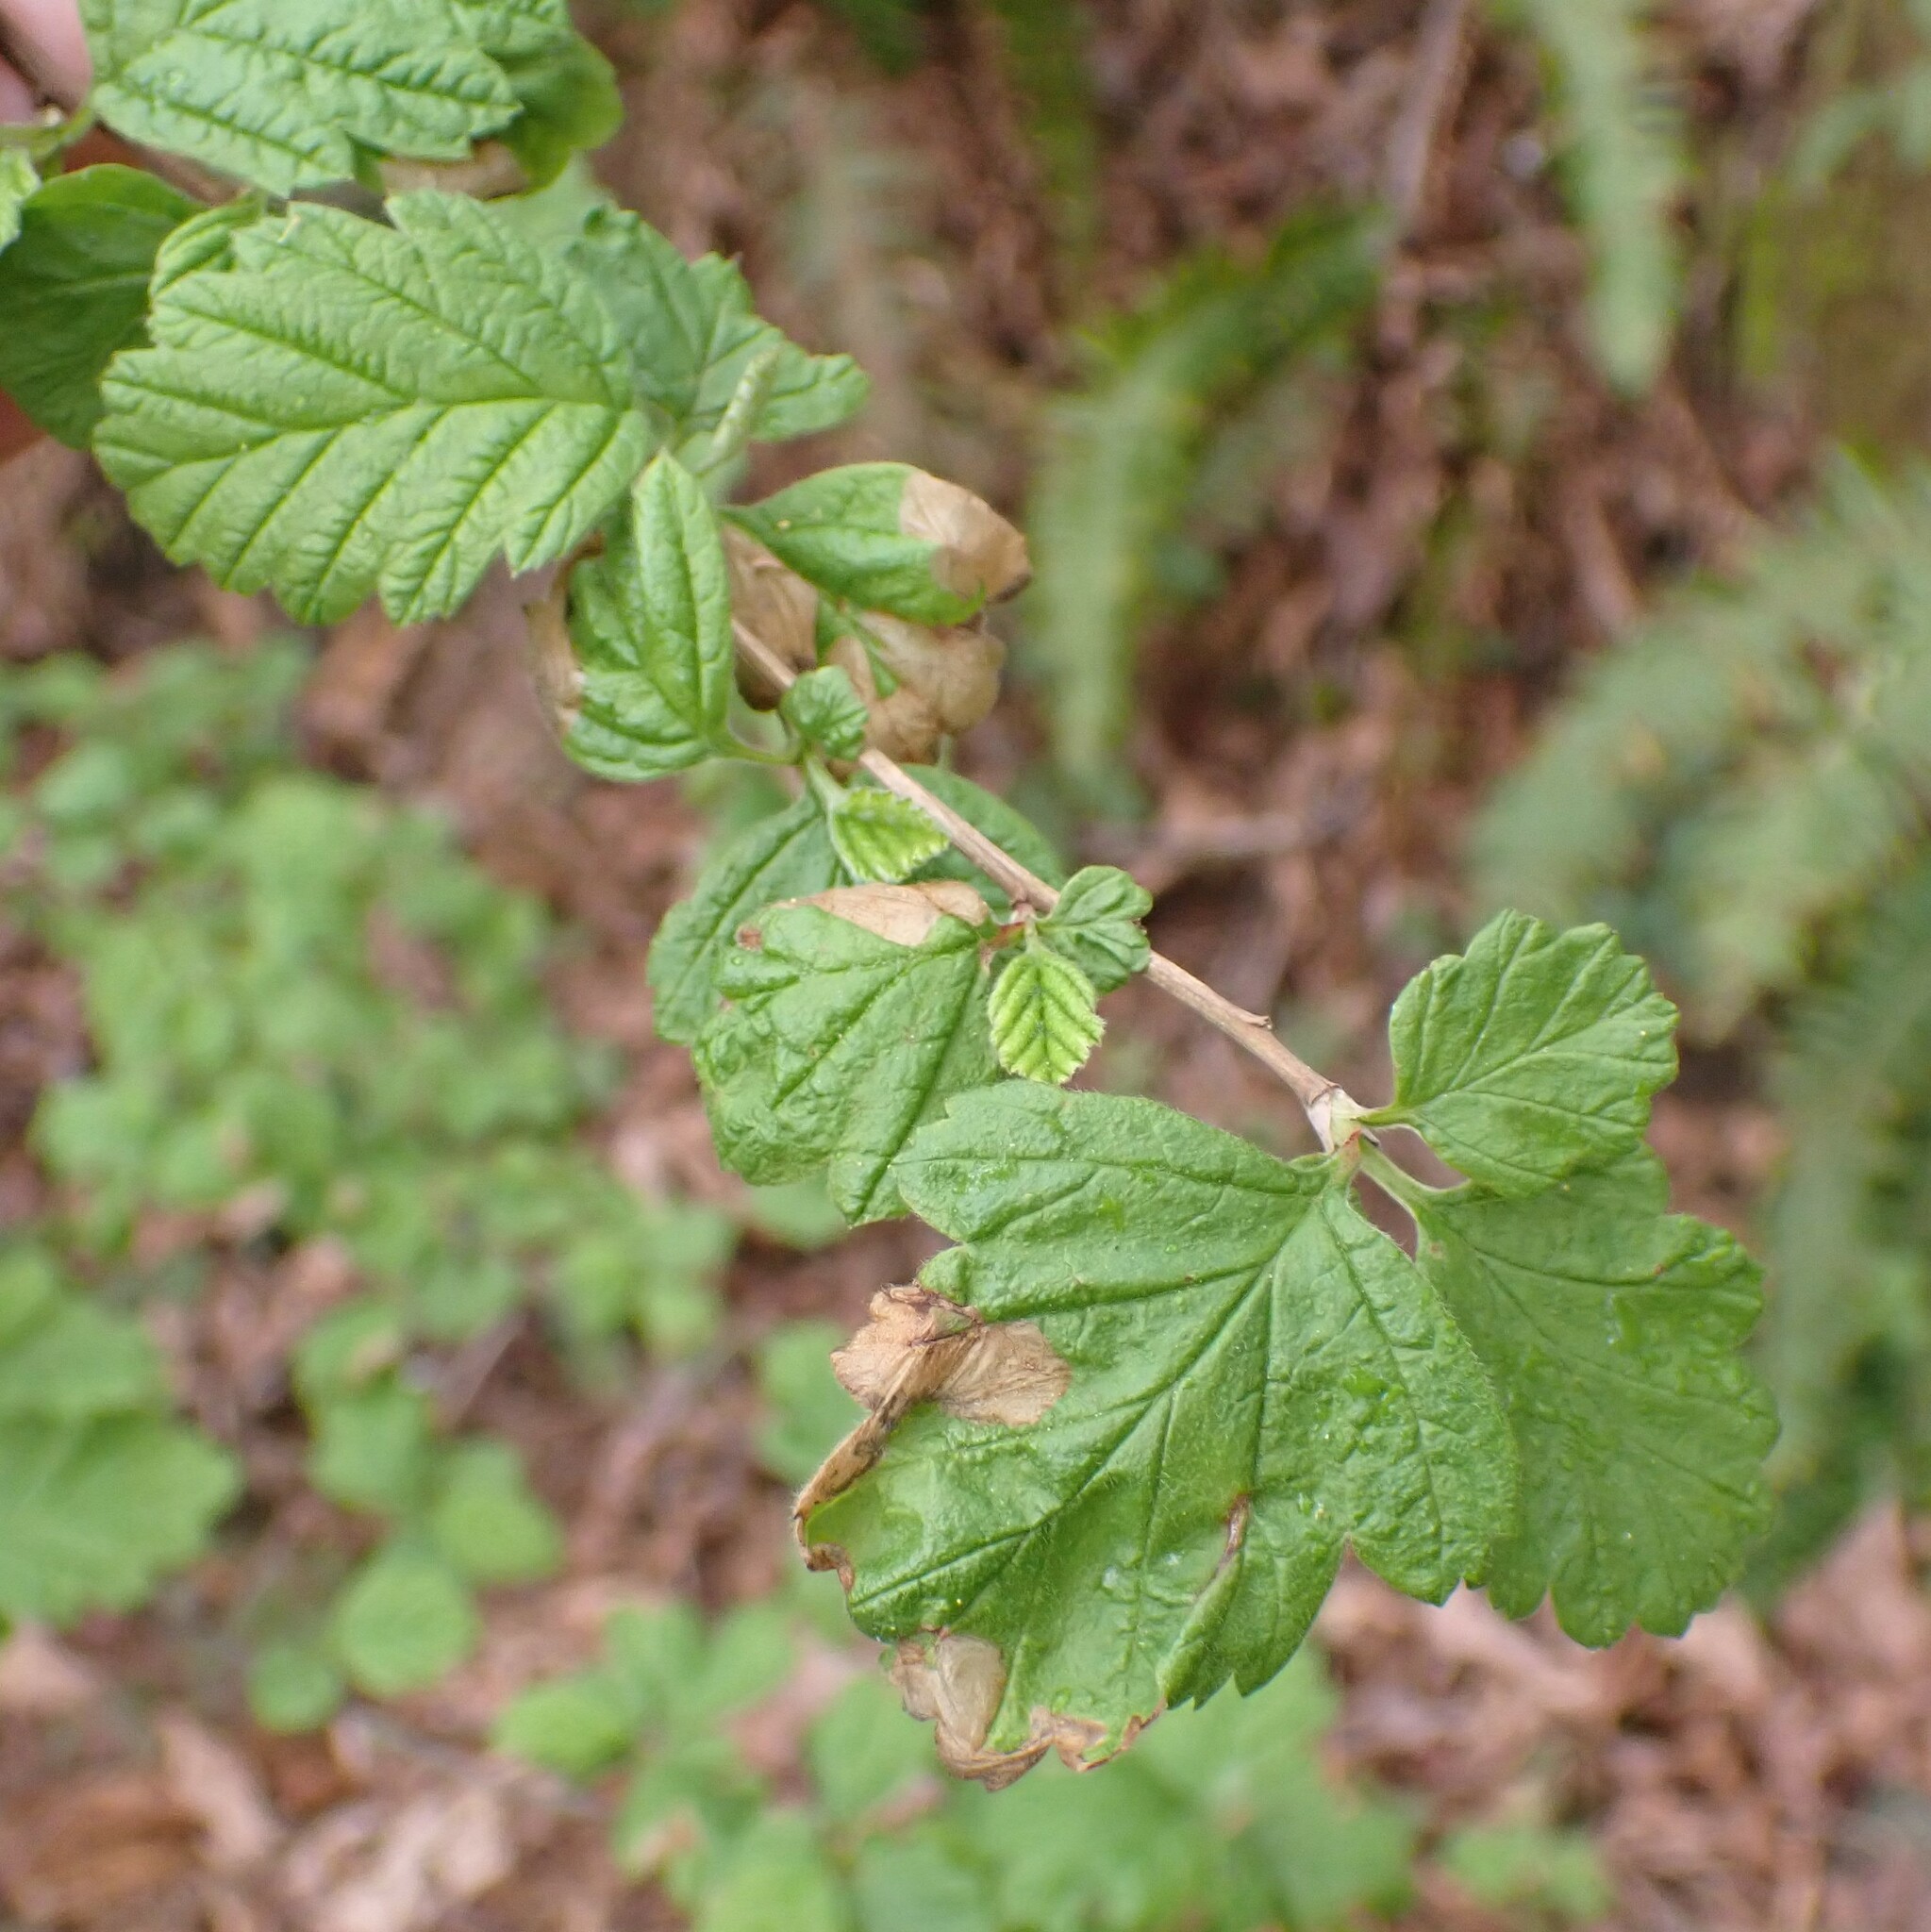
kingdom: Animalia
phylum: Arthropoda
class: Insecta
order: Lepidoptera
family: Eriocraniidae
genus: Eriocrania
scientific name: Eriocrania semipurpurella
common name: Early purple
